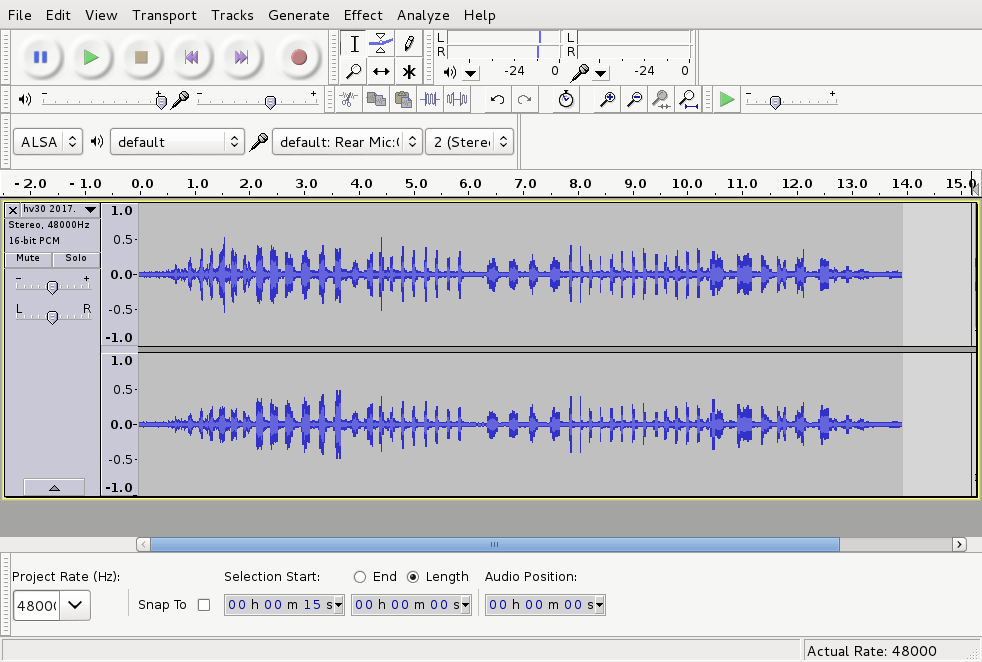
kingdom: Animalia
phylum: Chordata
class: Aves
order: Passeriformes
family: Petroicidae
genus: Petroica
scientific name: Petroica australis
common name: New zealand robin
